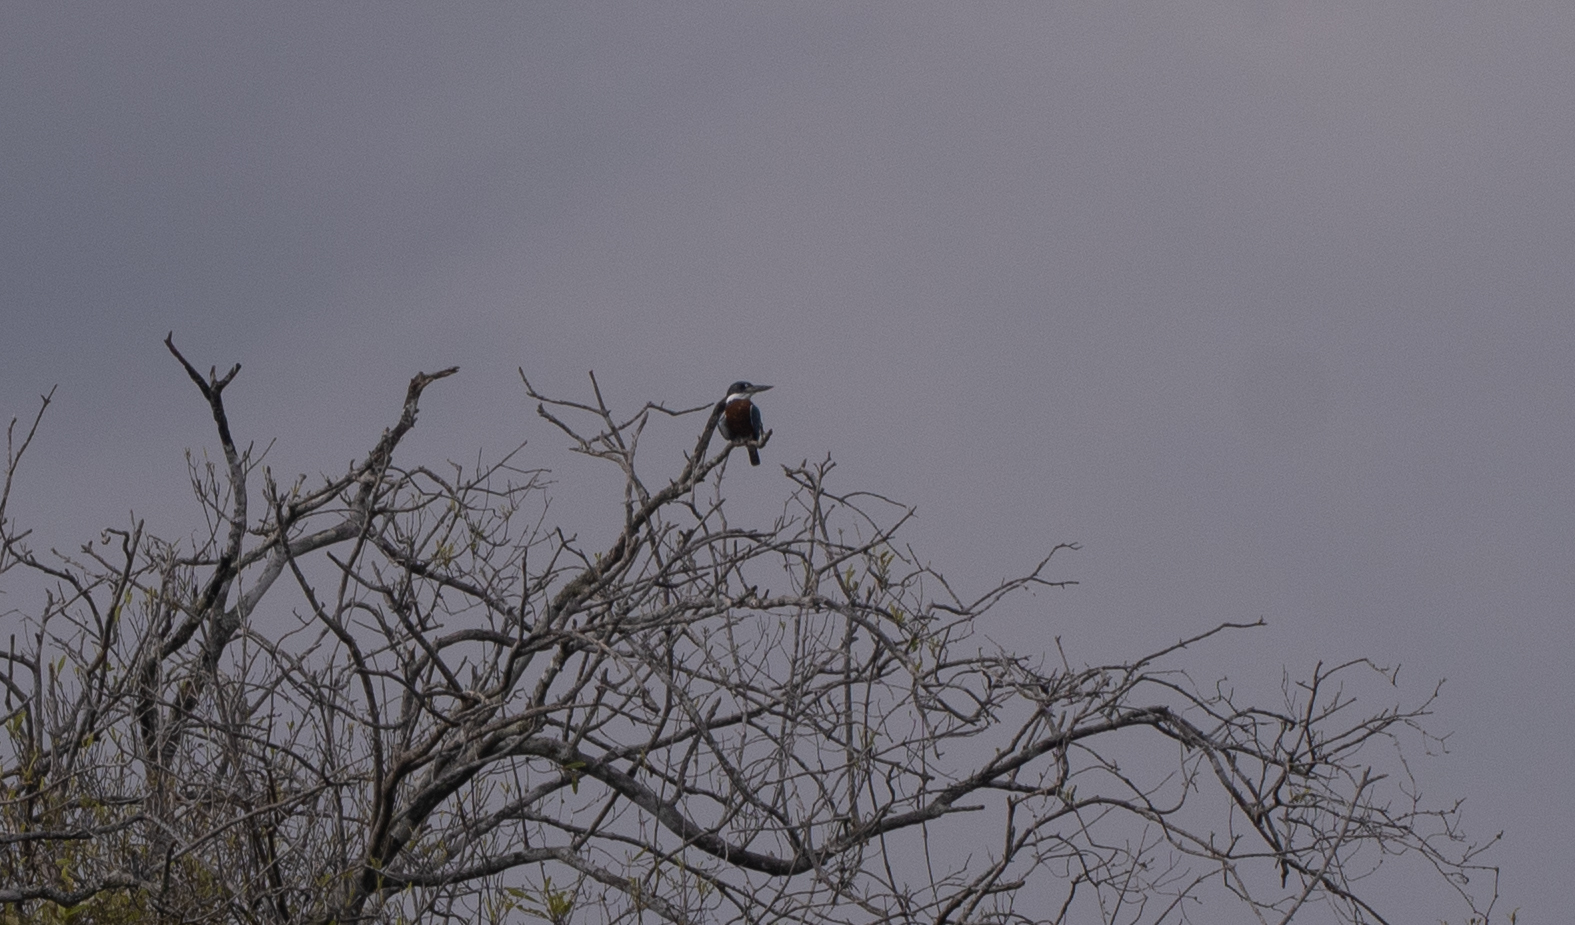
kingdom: Animalia
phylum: Chordata
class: Aves
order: Coraciiformes
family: Alcedinidae
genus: Megaceryle
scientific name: Megaceryle torquata
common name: Ringed kingfisher
